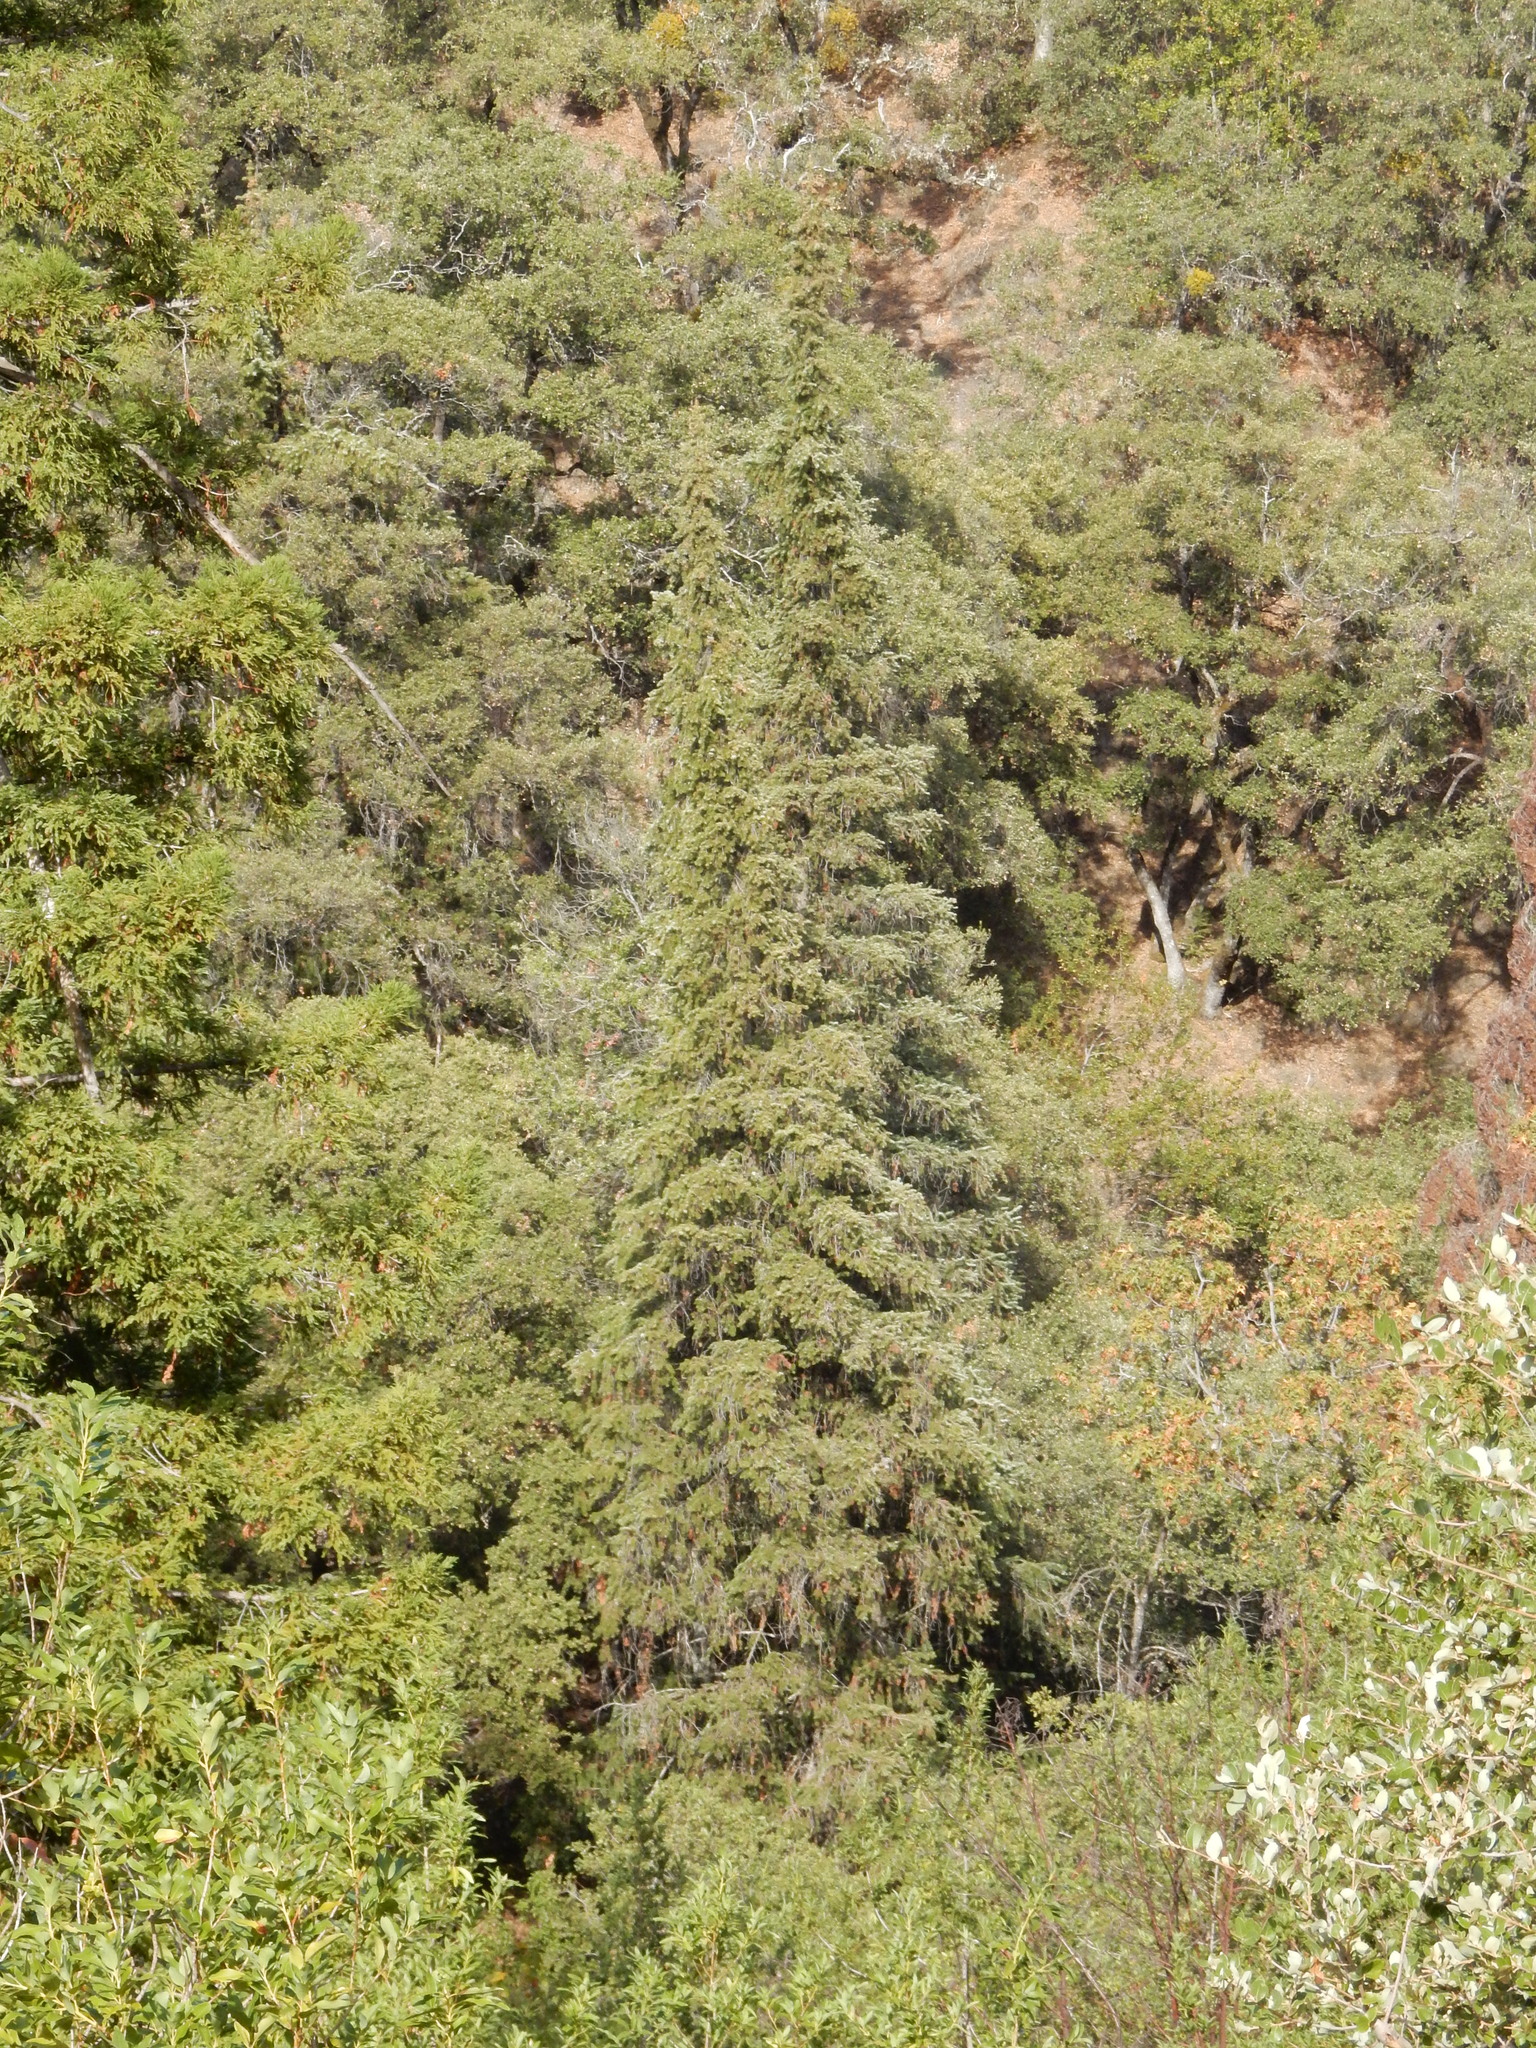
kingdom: Plantae
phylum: Tracheophyta
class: Pinopsida
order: Pinales
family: Pinaceae
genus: Abies
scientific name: Abies bracteata
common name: Bristlecone fir
